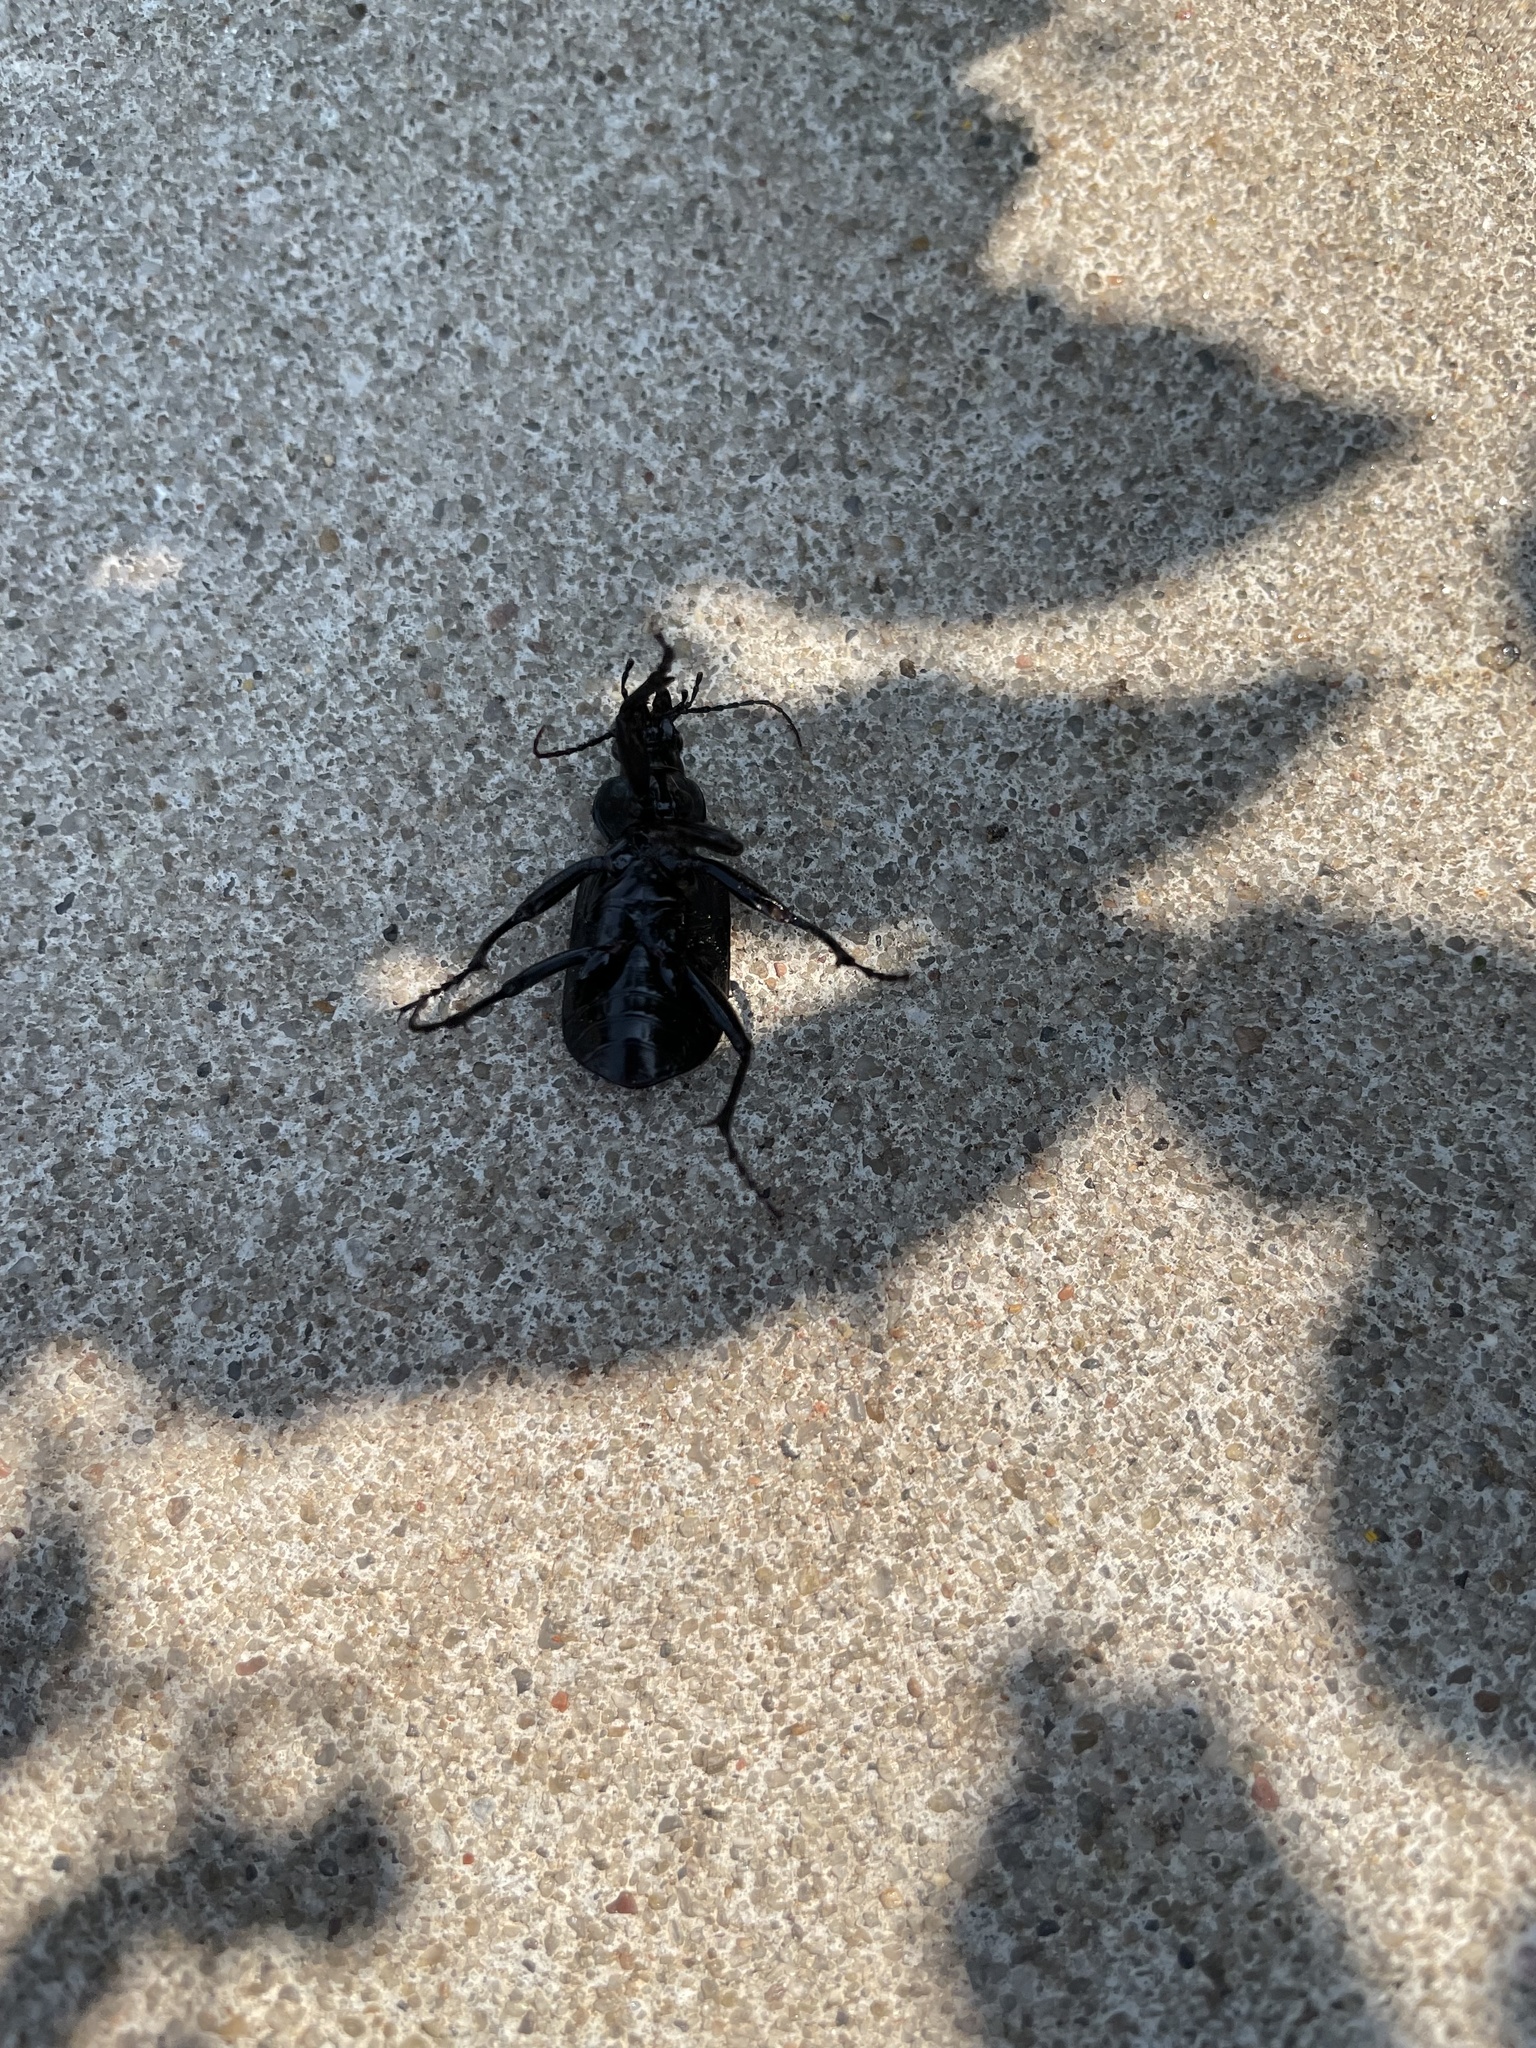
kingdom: Animalia
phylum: Arthropoda
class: Insecta
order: Coleoptera
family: Carabidae
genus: Calosoma
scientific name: Calosoma
